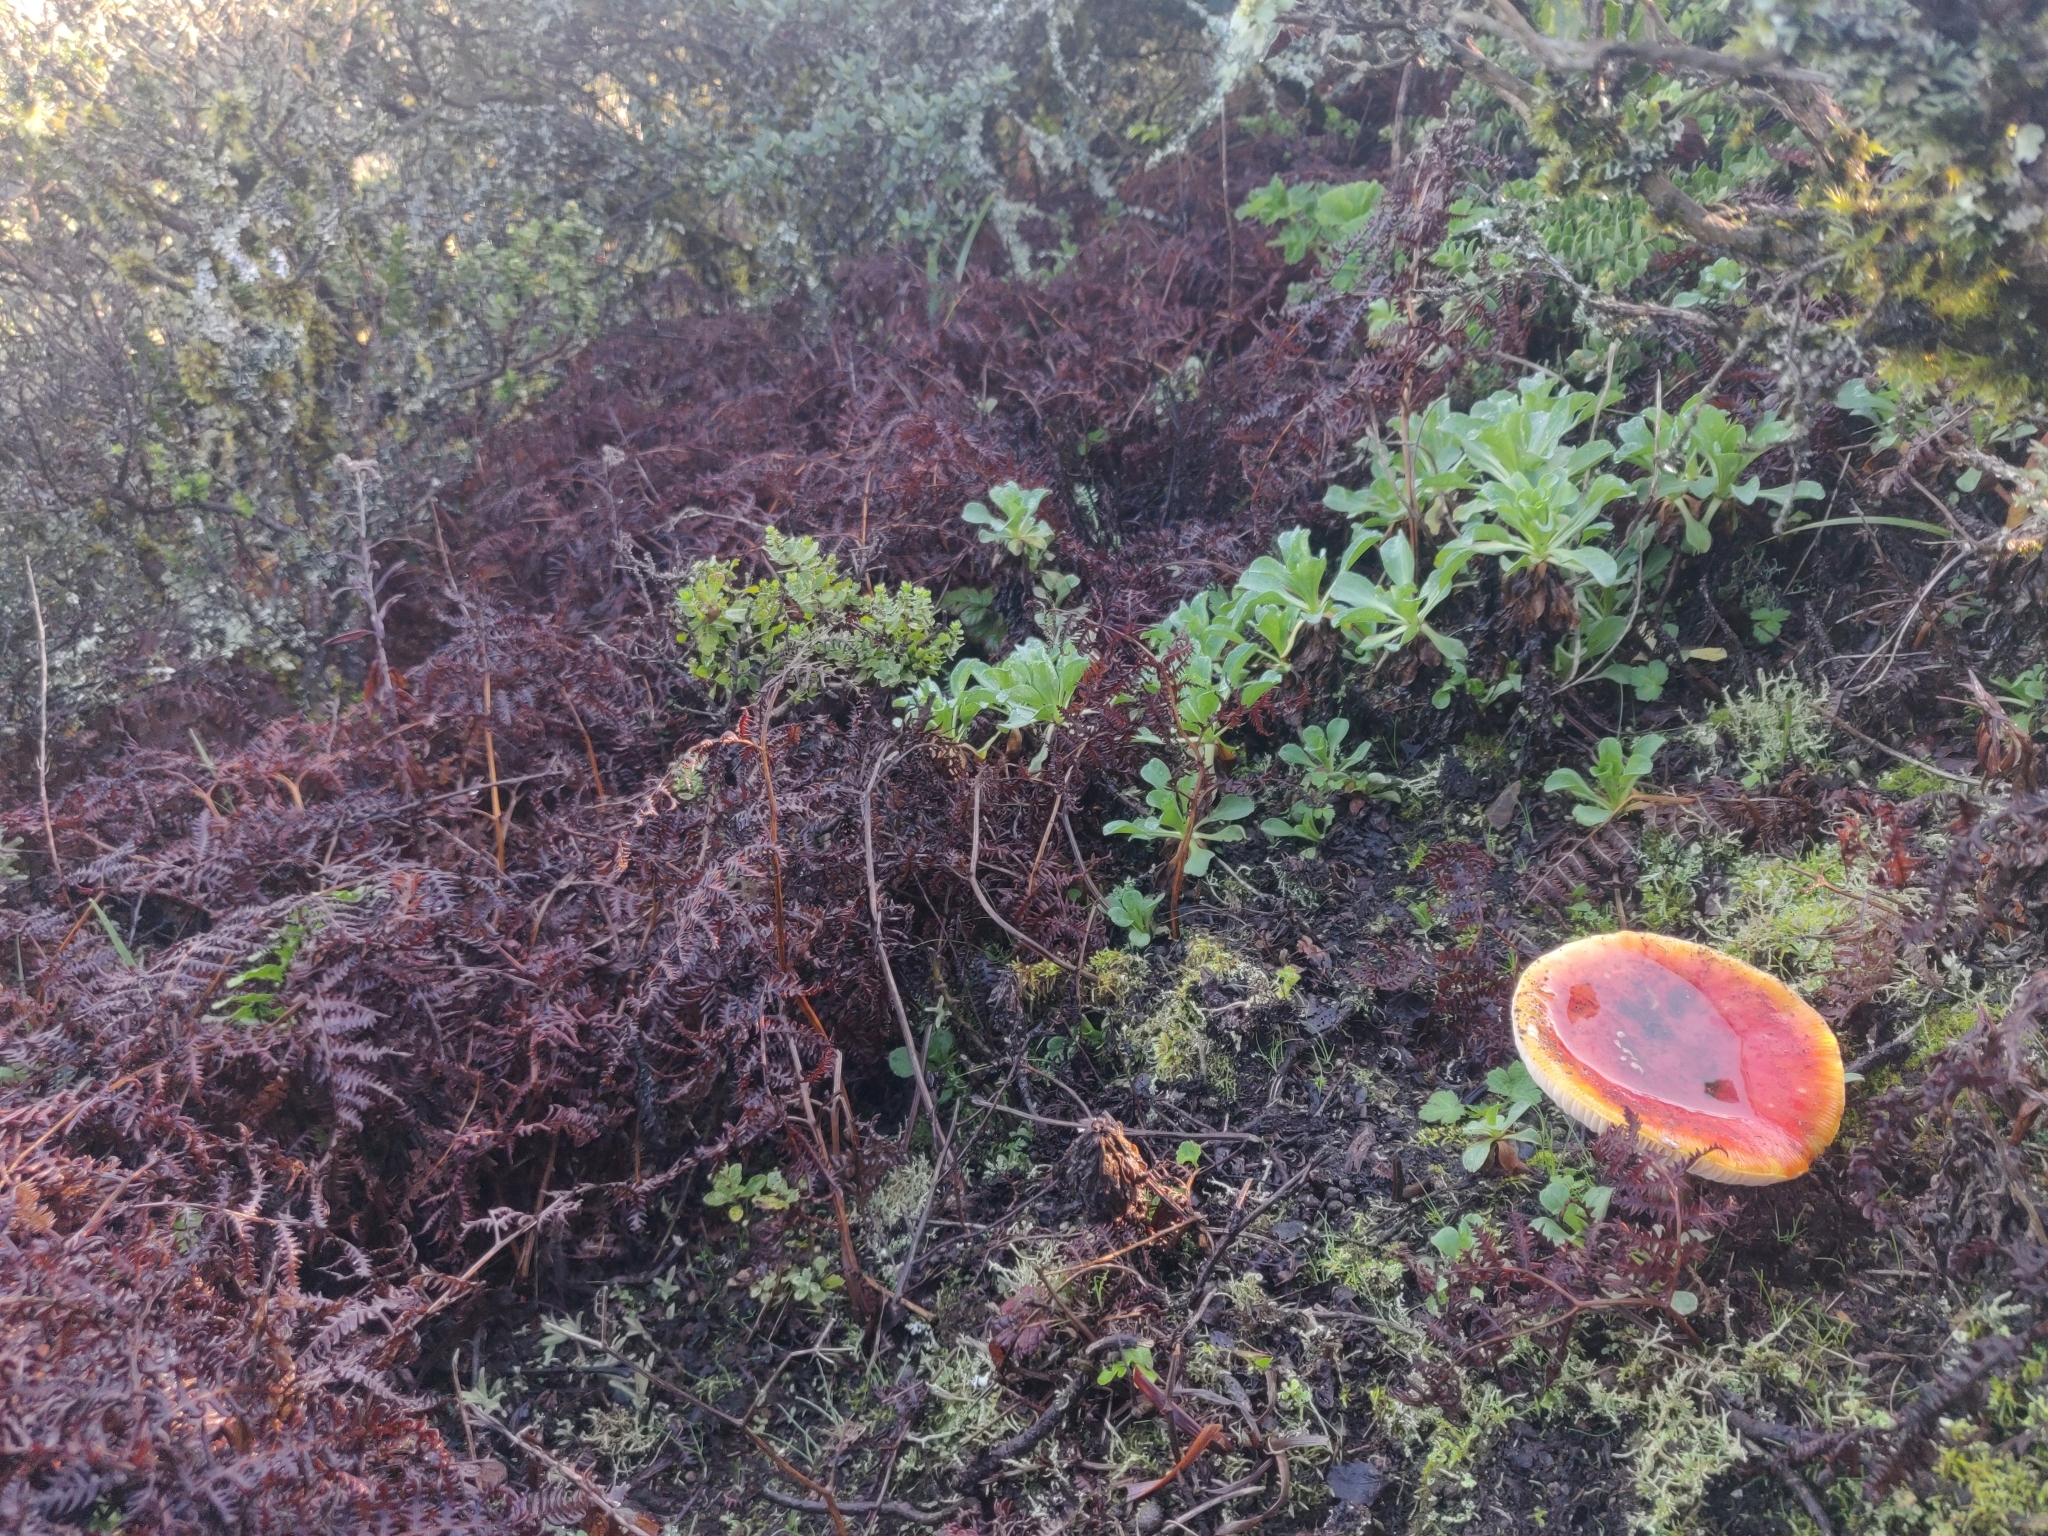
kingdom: Fungi
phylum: Basidiomycota
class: Agaricomycetes
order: Agaricales
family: Amanitaceae
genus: Amanita
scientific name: Amanita muscaria
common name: Fly agaric
